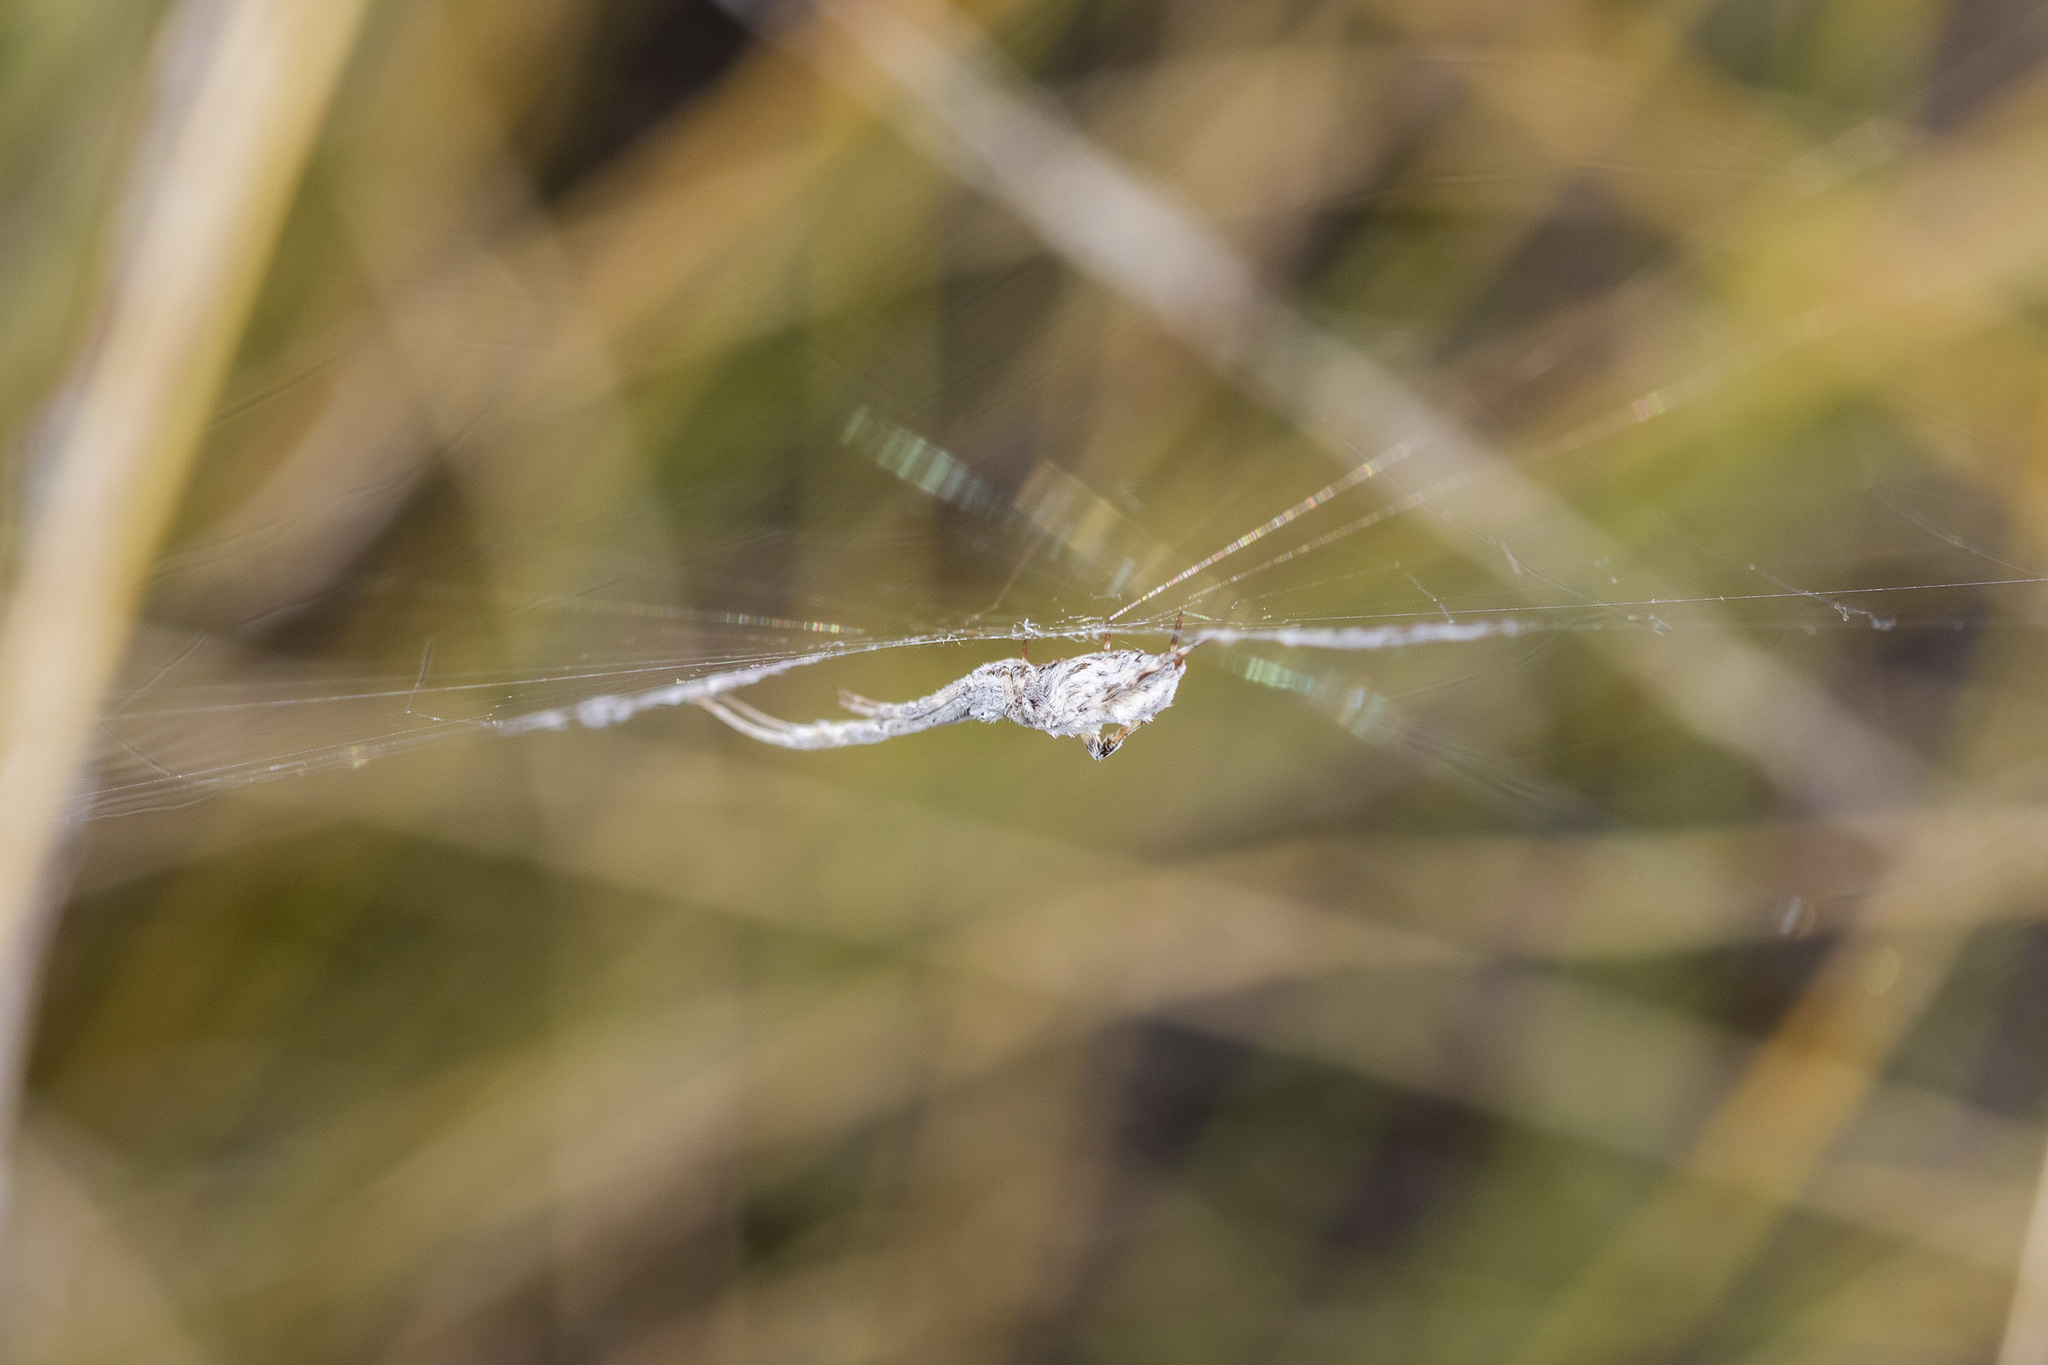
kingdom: Animalia
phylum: Arthropoda
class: Arachnida
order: Araneae
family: Uloboridae
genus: Uloborus
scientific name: Uloborus walckenaerius
